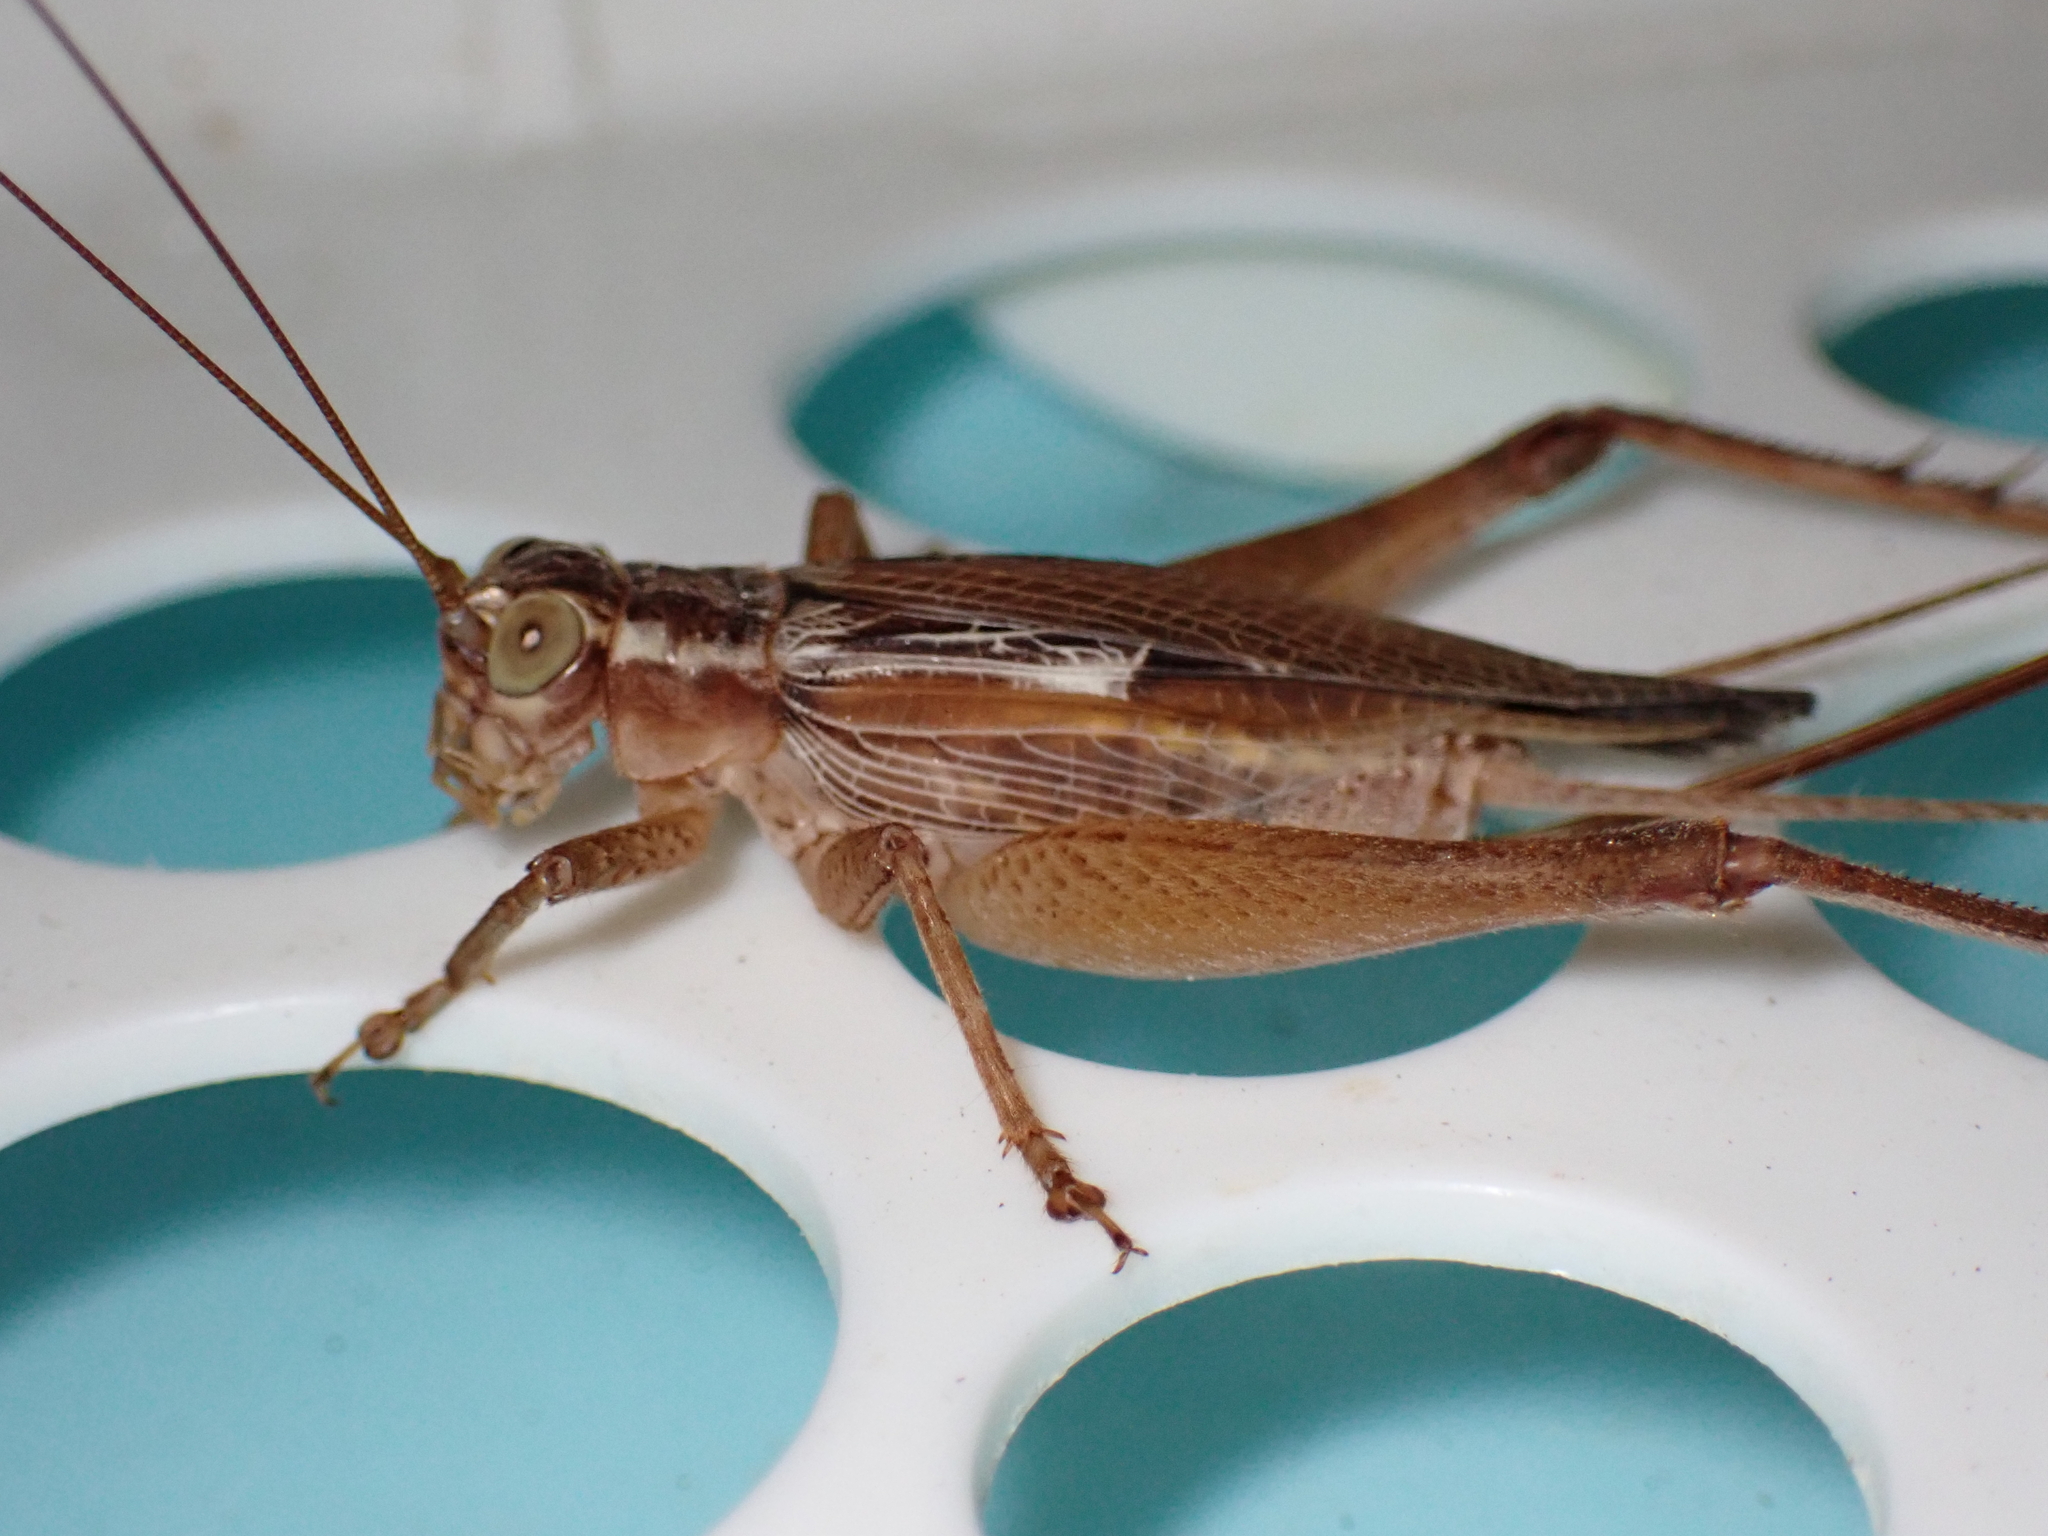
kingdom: Animalia
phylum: Arthropoda
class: Insecta
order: Orthoptera
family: Gryllidae
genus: Cardiodactylus
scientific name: Cardiodactylus novaeguineae
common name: Sad cricket
